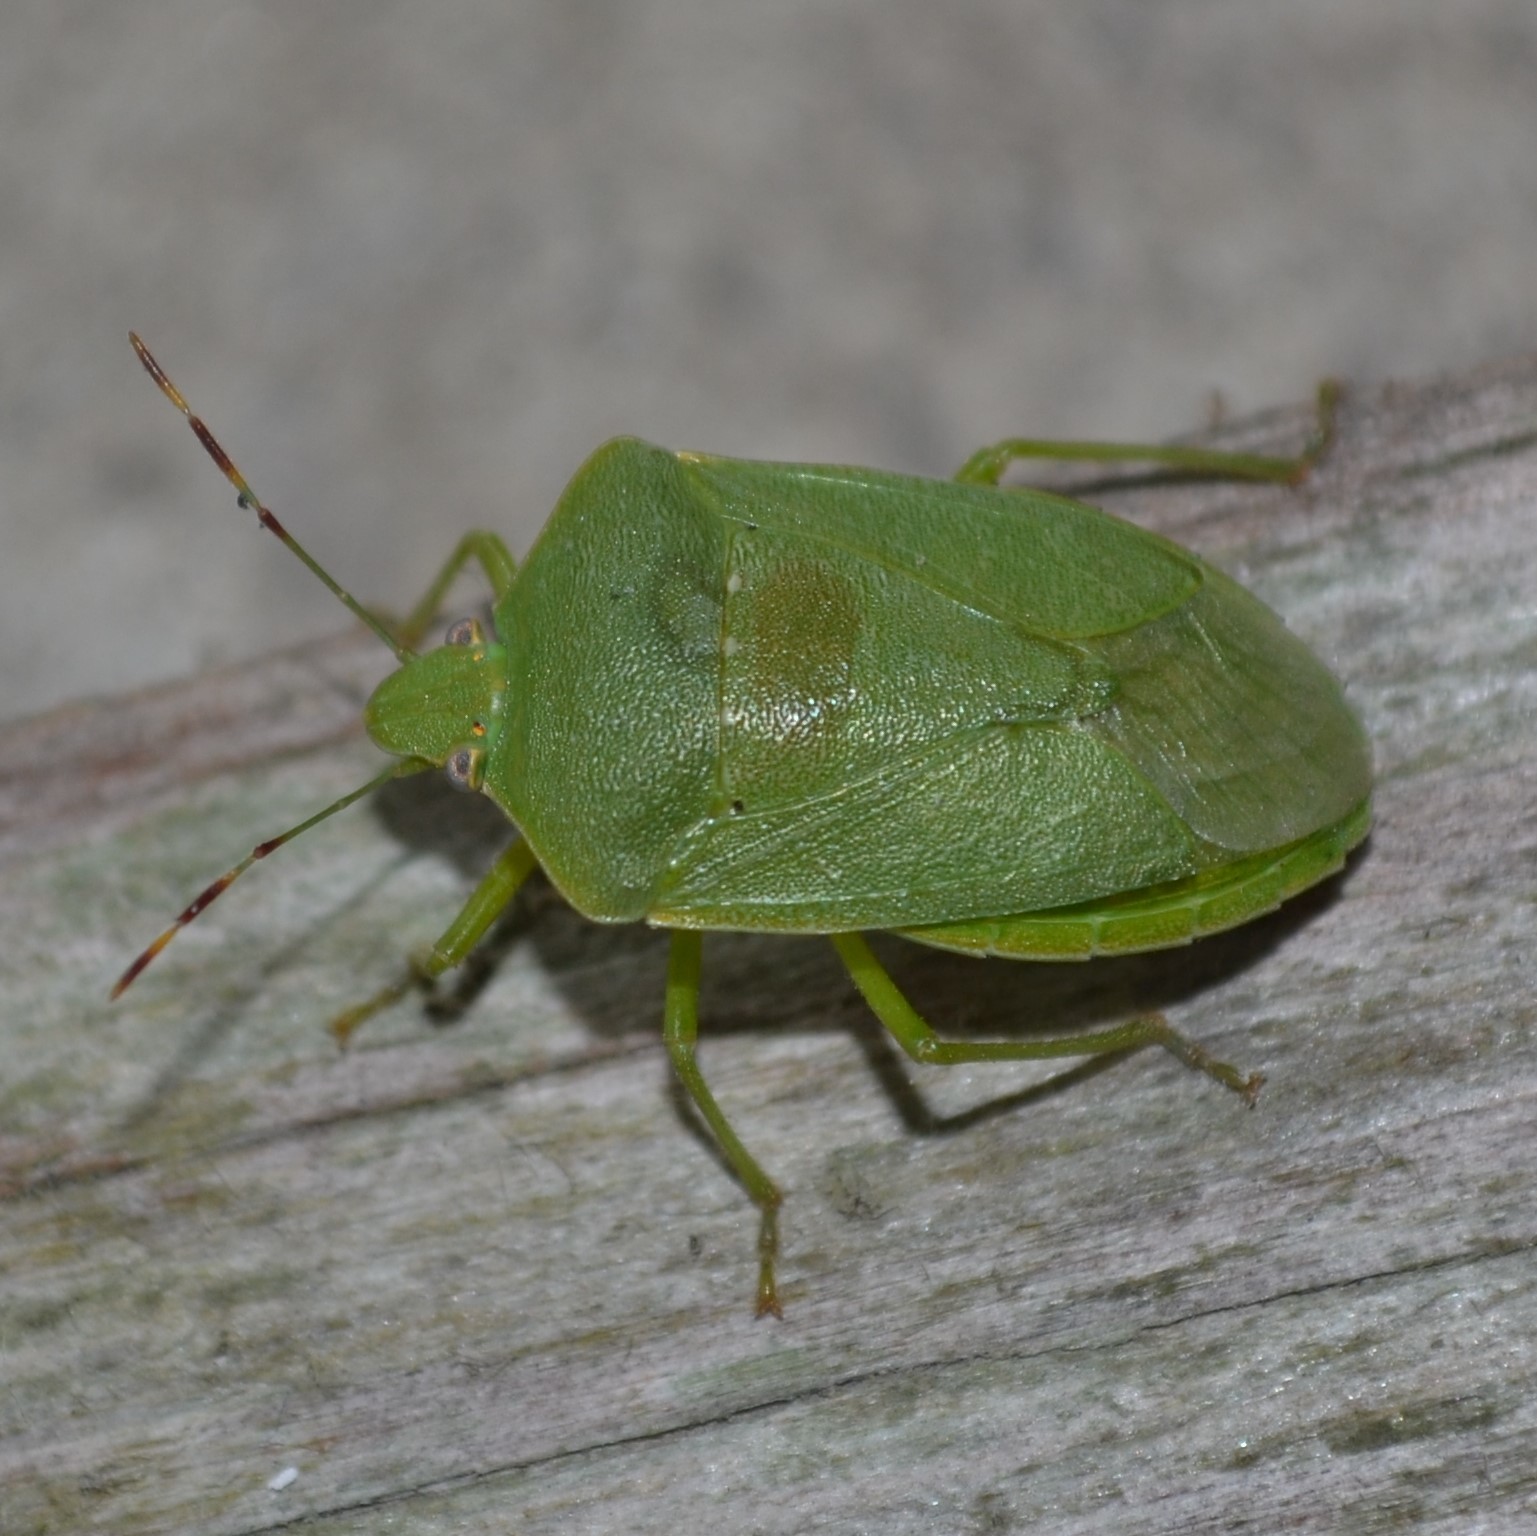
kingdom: Animalia
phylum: Arthropoda
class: Insecta
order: Hemiptera
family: Pentatomidae
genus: Nezara
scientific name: Nezara viridula
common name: Southern green stink bug
